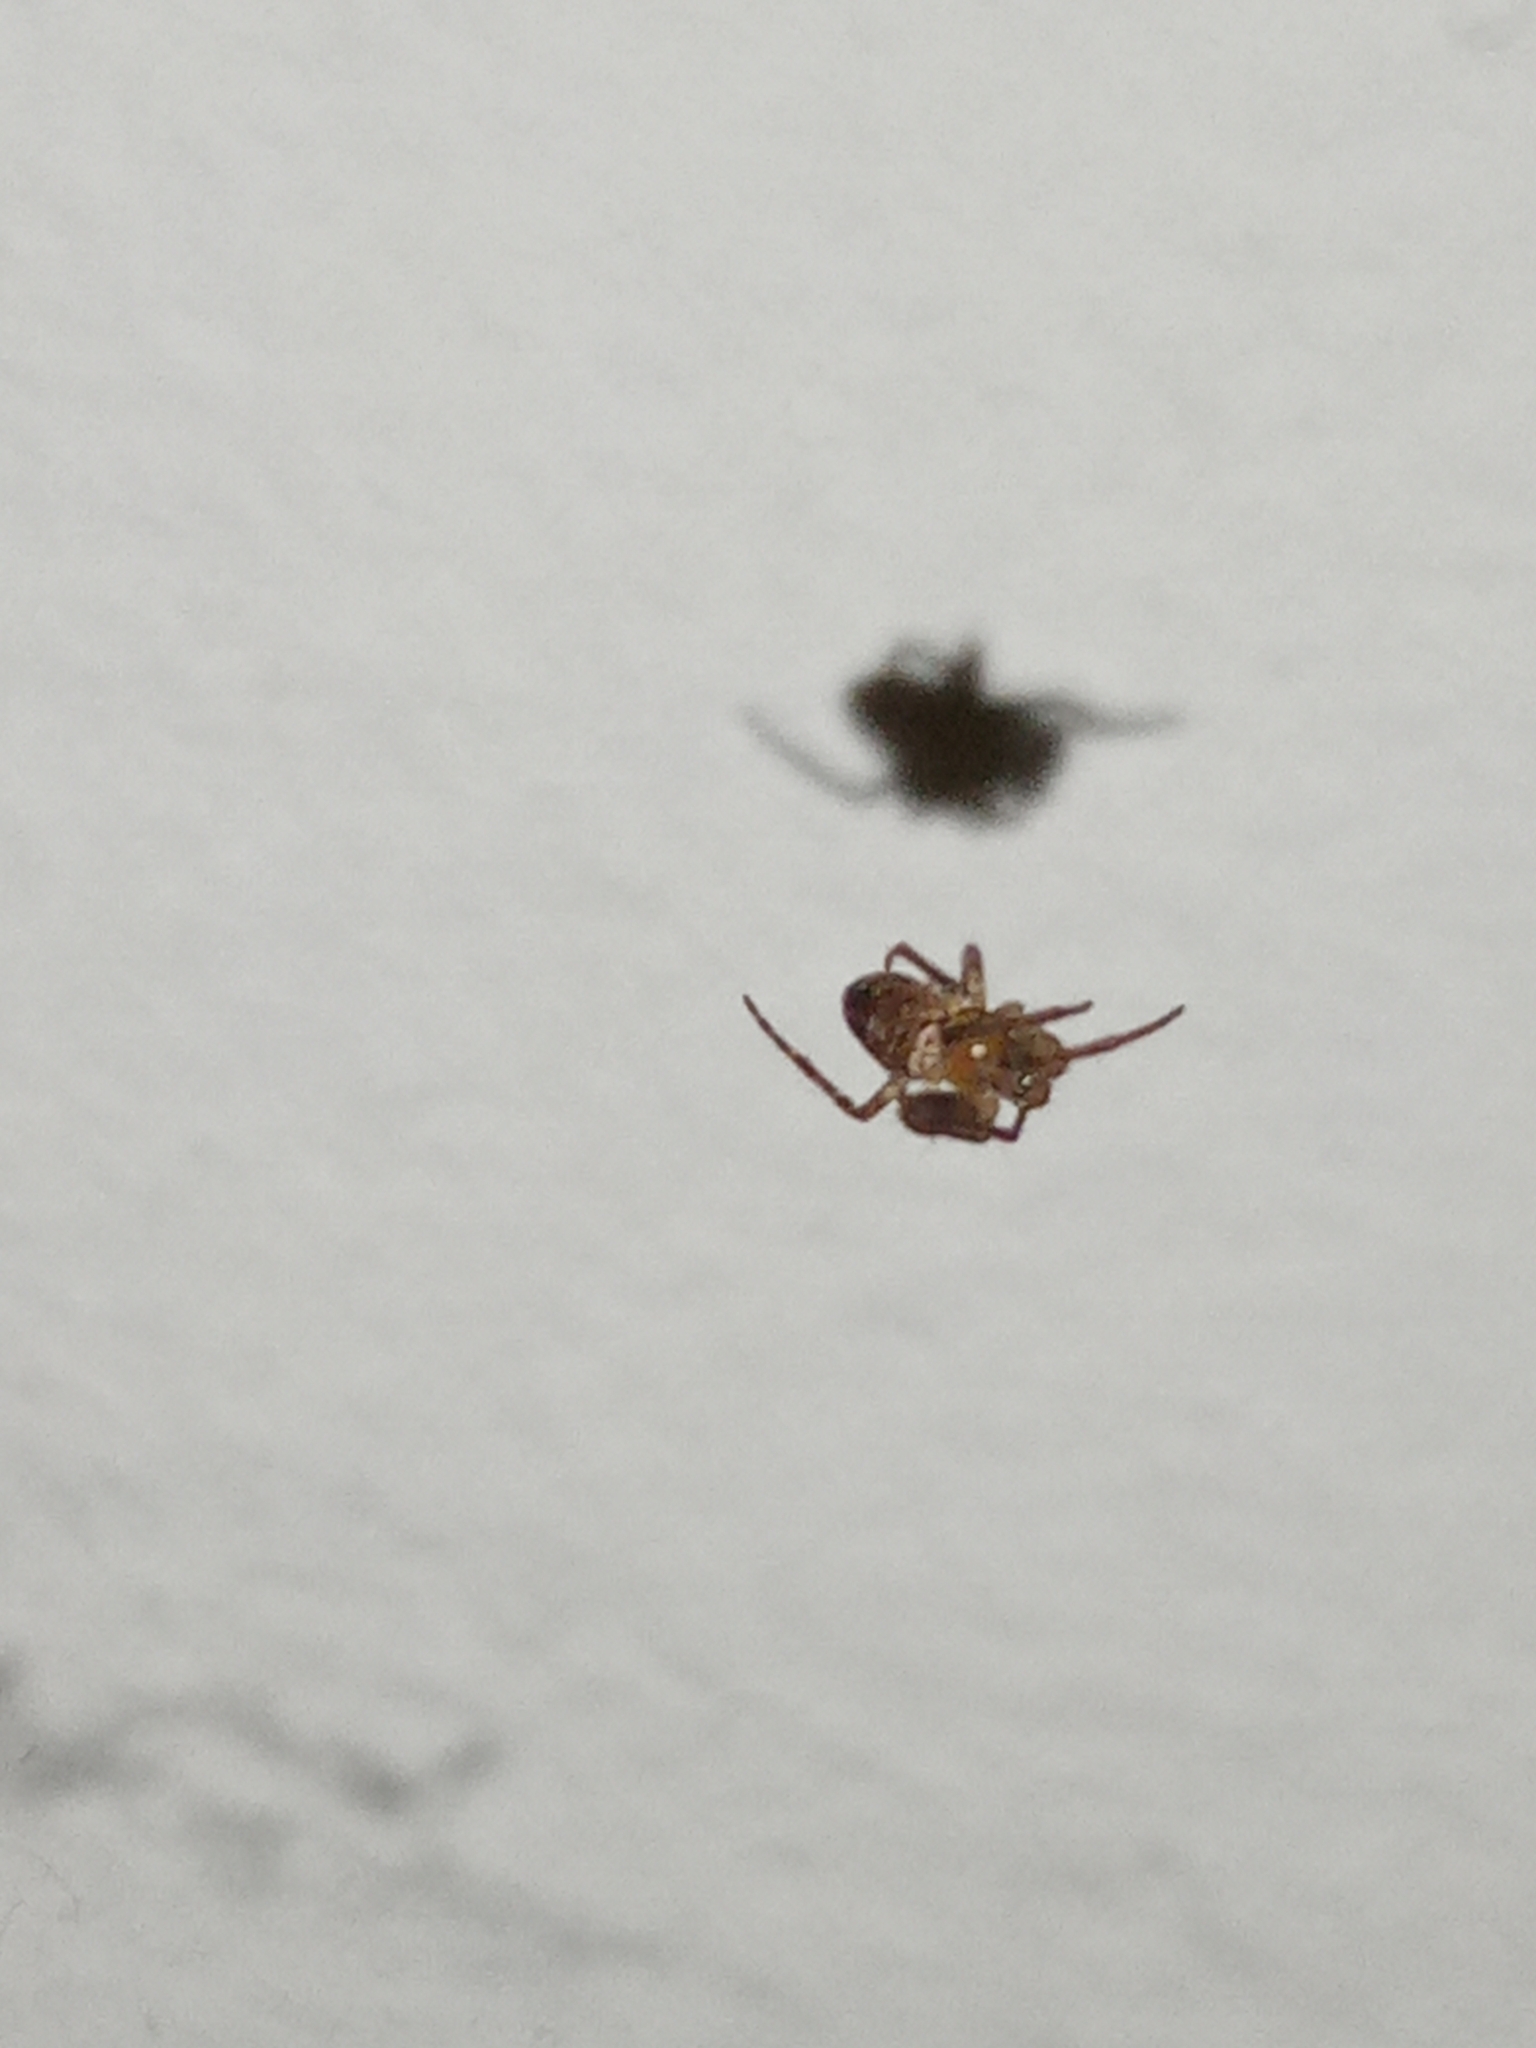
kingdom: Animalia
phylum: Arthropoda
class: Arachnida
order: Araneae
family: Araneidae
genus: Zilla
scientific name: Zilla diodia
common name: Zilla diodia
